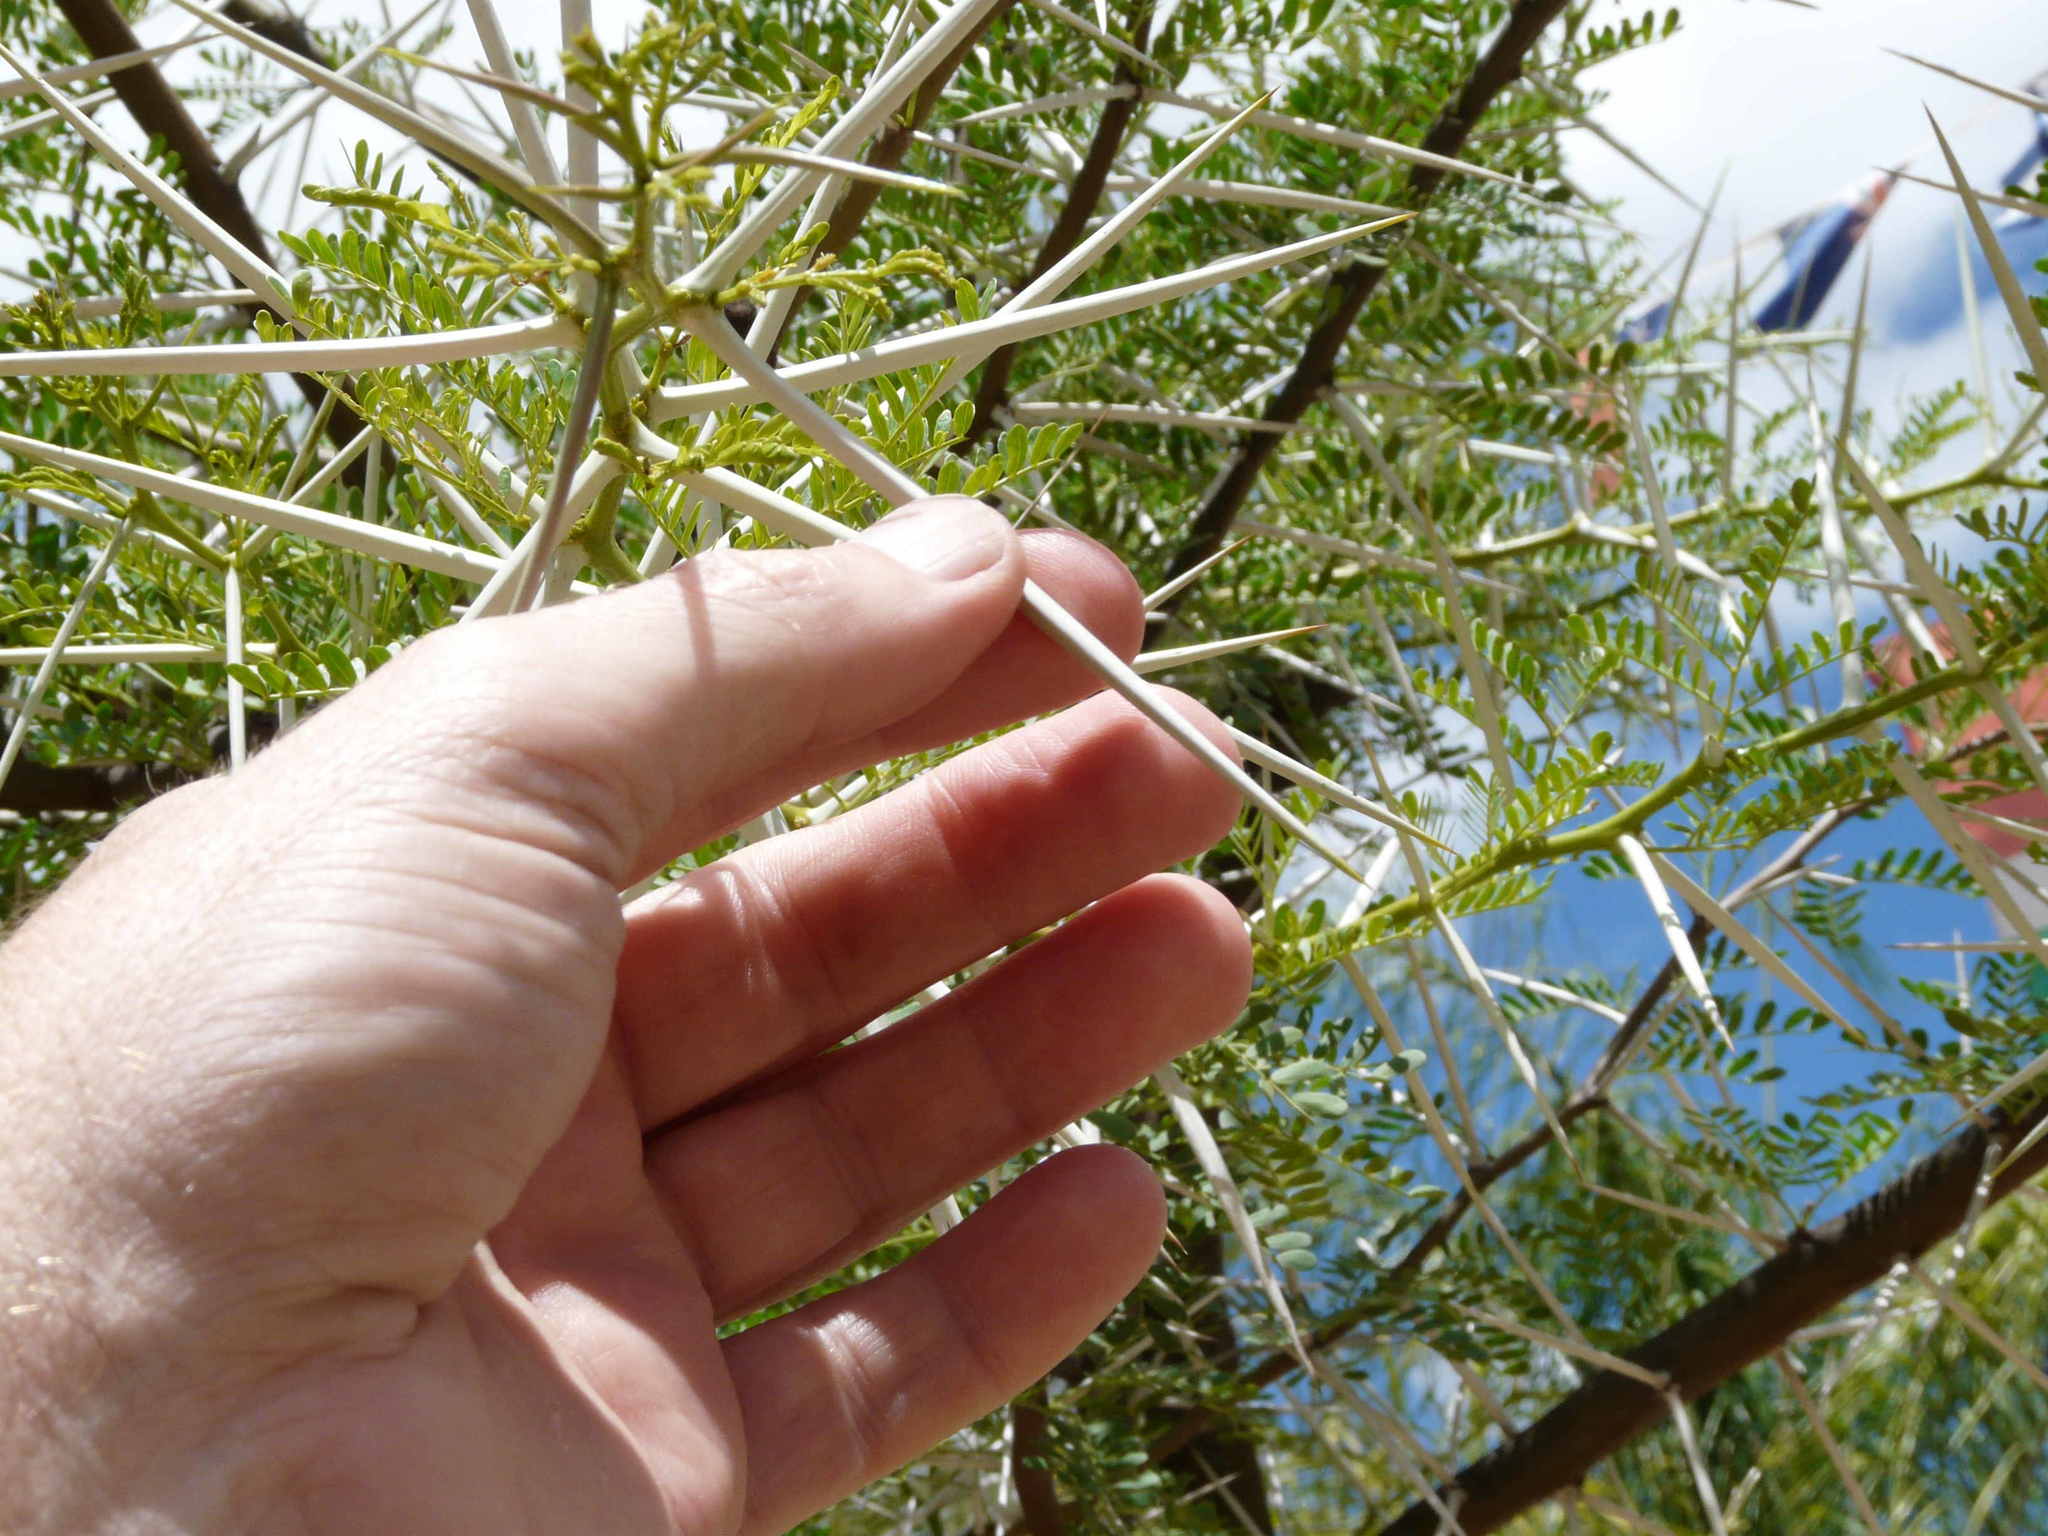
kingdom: Plantae
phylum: Tracheophyta
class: Magnoliopsida
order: Fabales
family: Fabaceae
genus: Vachellia
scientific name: Vachellia karroo
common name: Sweet thorn
